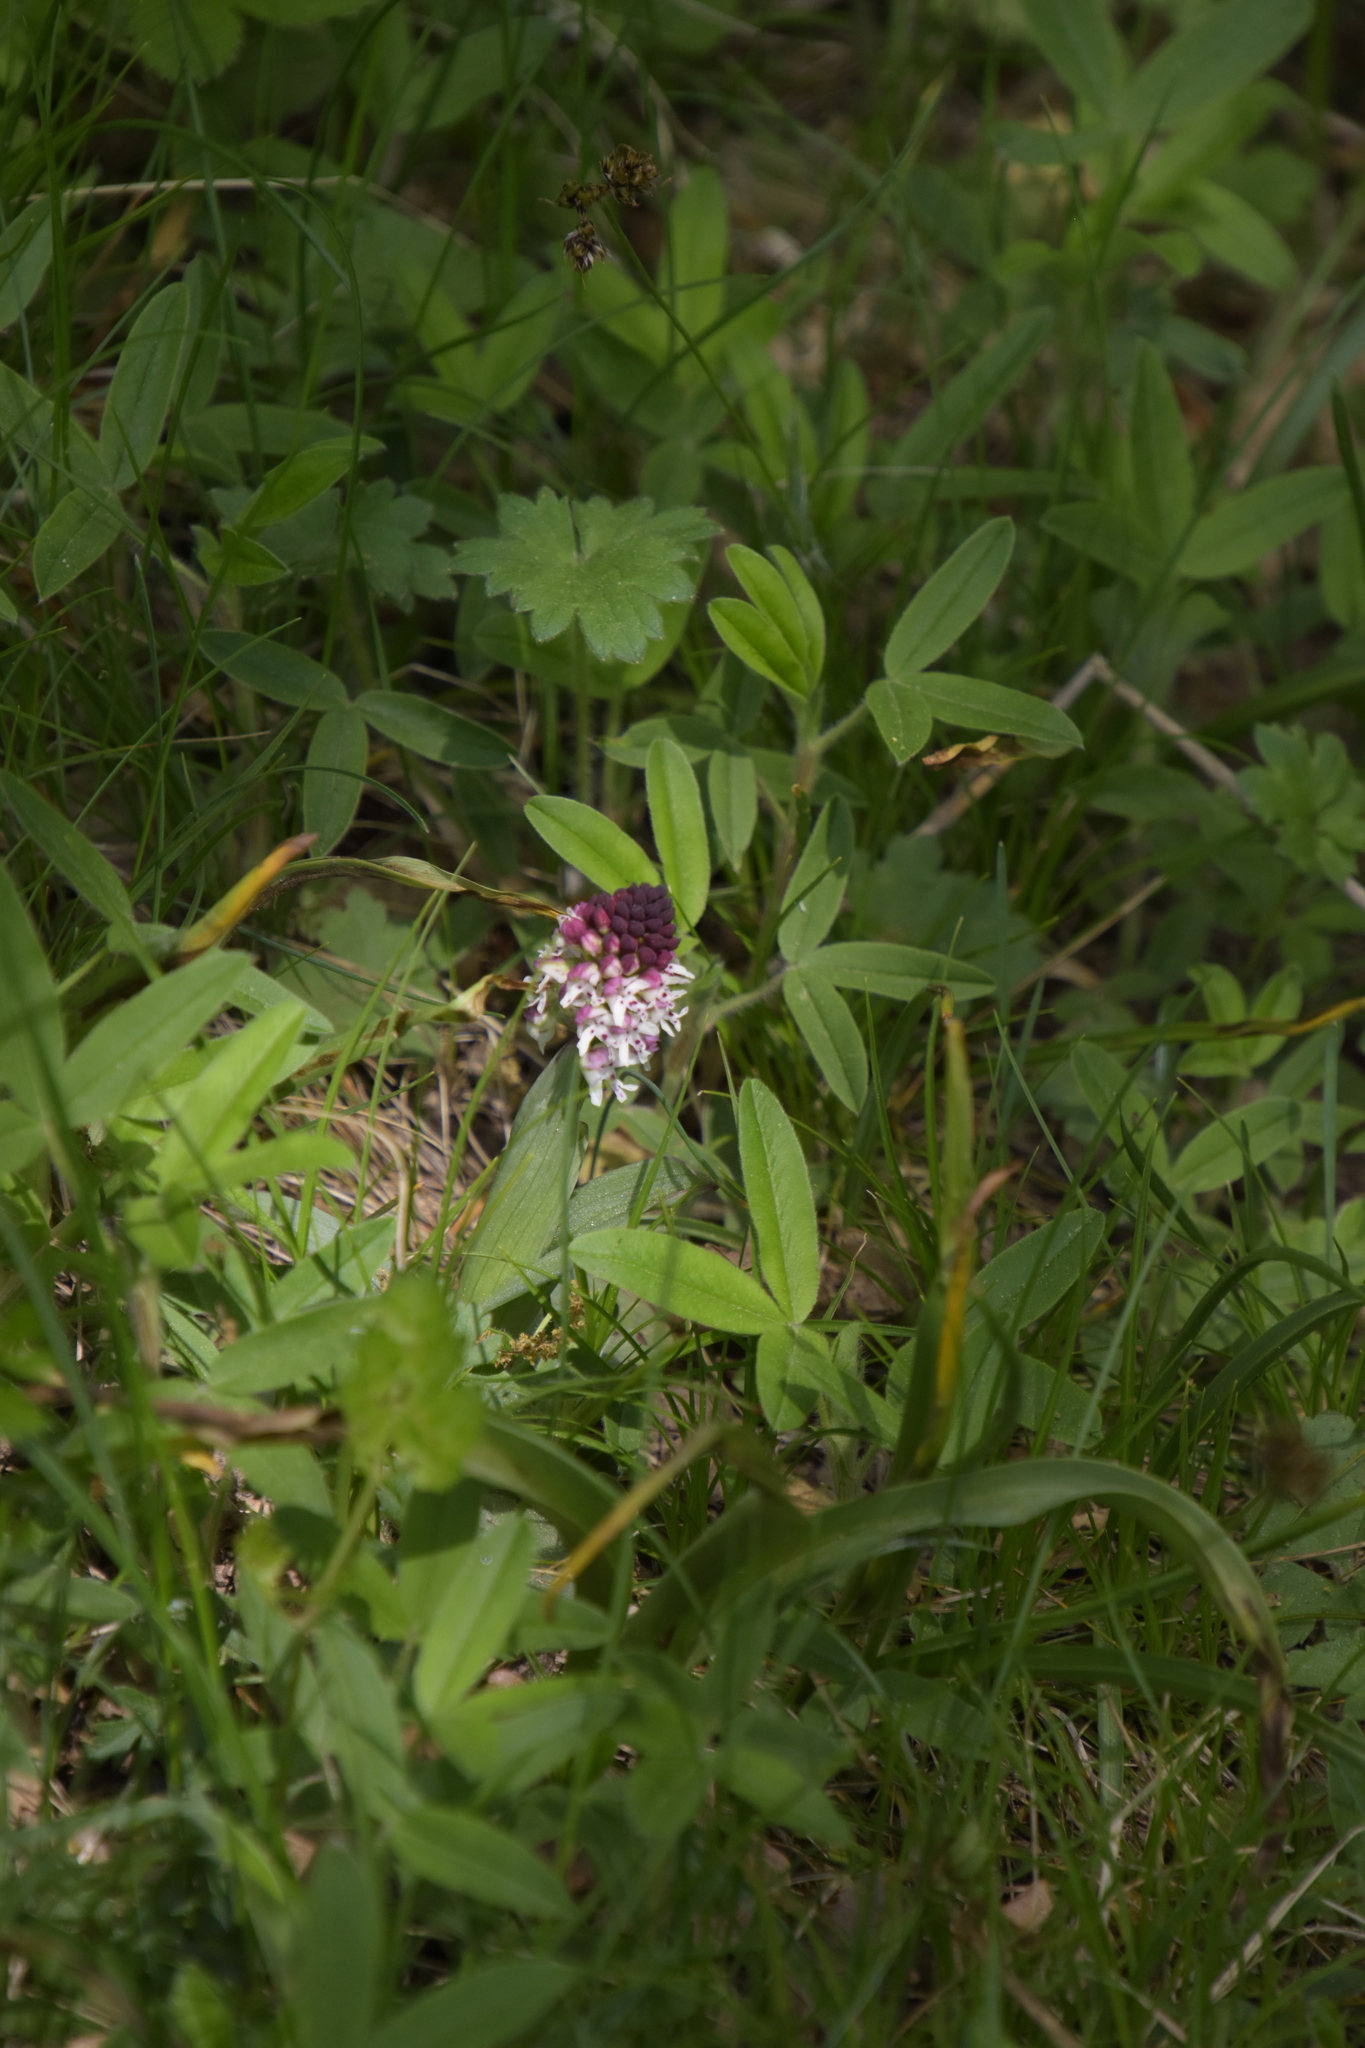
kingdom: Plantae
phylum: Tracheophyta
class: Liliopsida
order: Asparagales
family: Orchidaceae
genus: Neotinea
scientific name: Neotinea ustulata
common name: Burnt orchid
